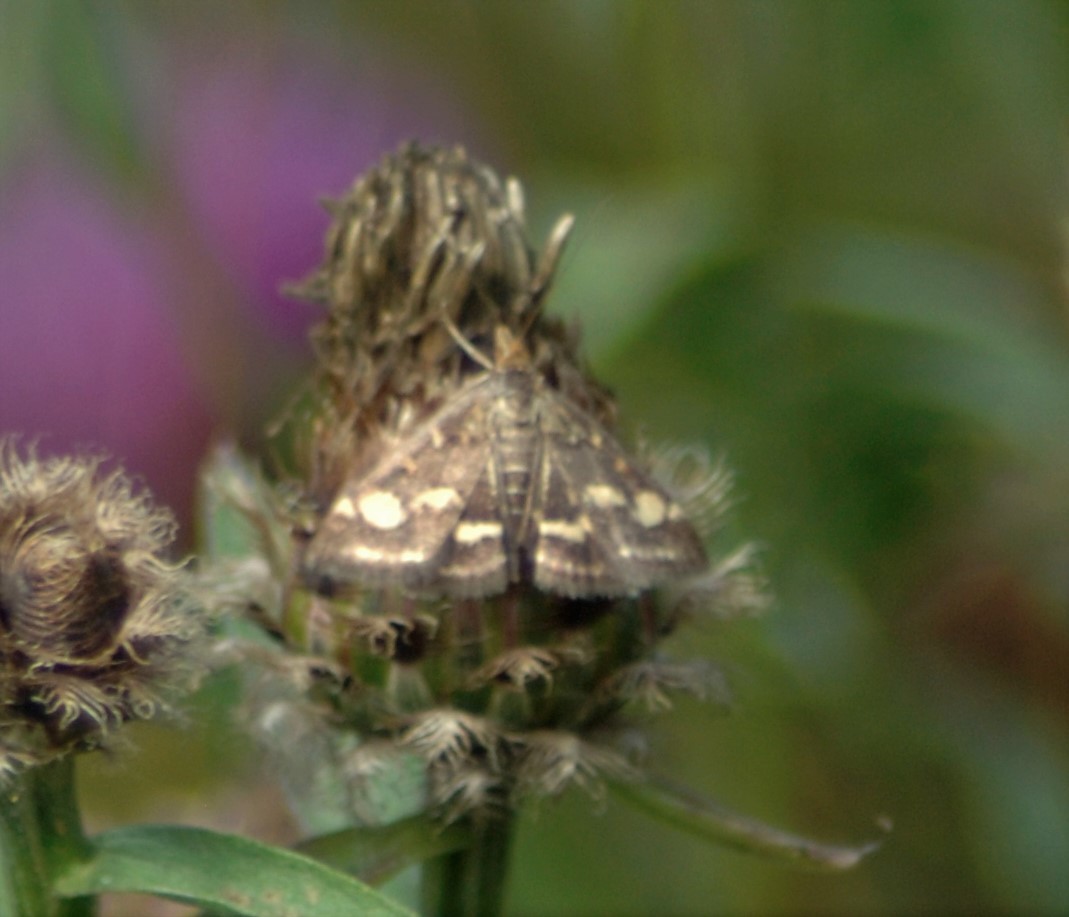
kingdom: Animalia
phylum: Arthropoda
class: Insecta
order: Lepidoptera
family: Crambidae
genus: Pyrausta
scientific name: Pyrausta purpuralis
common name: Common purple & gold
